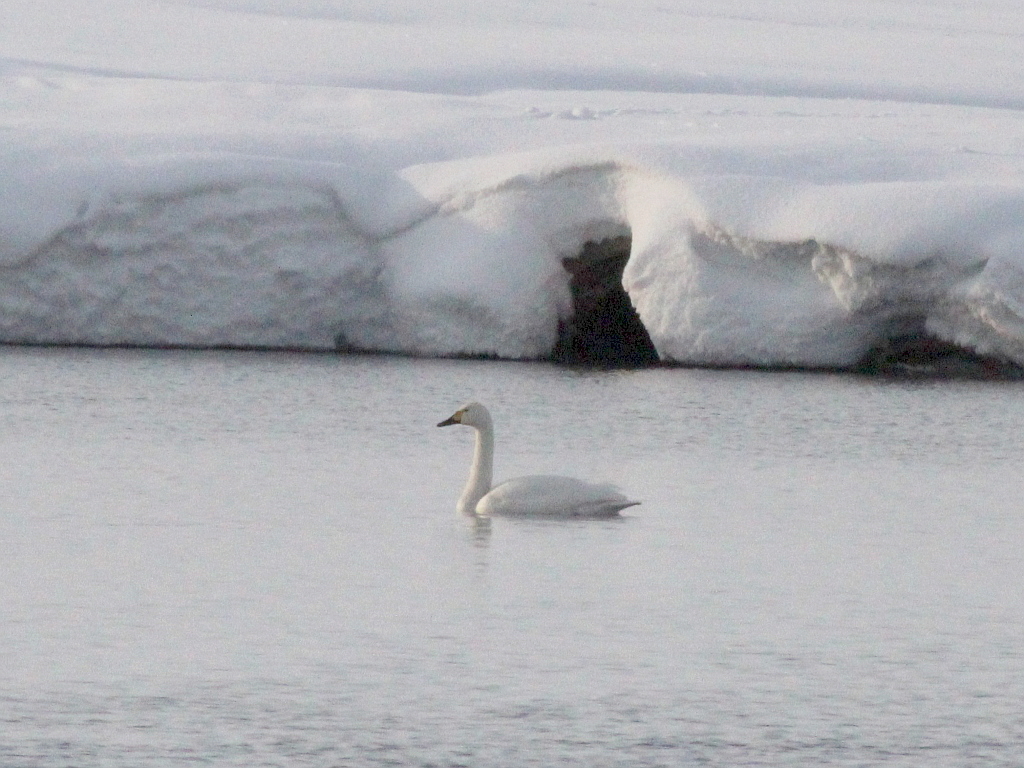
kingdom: Animalia
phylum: Chordata
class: Aves
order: Anseriformes
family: Anatidae
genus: Cygnus
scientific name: Cygnus columbianus
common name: Tundra swan
